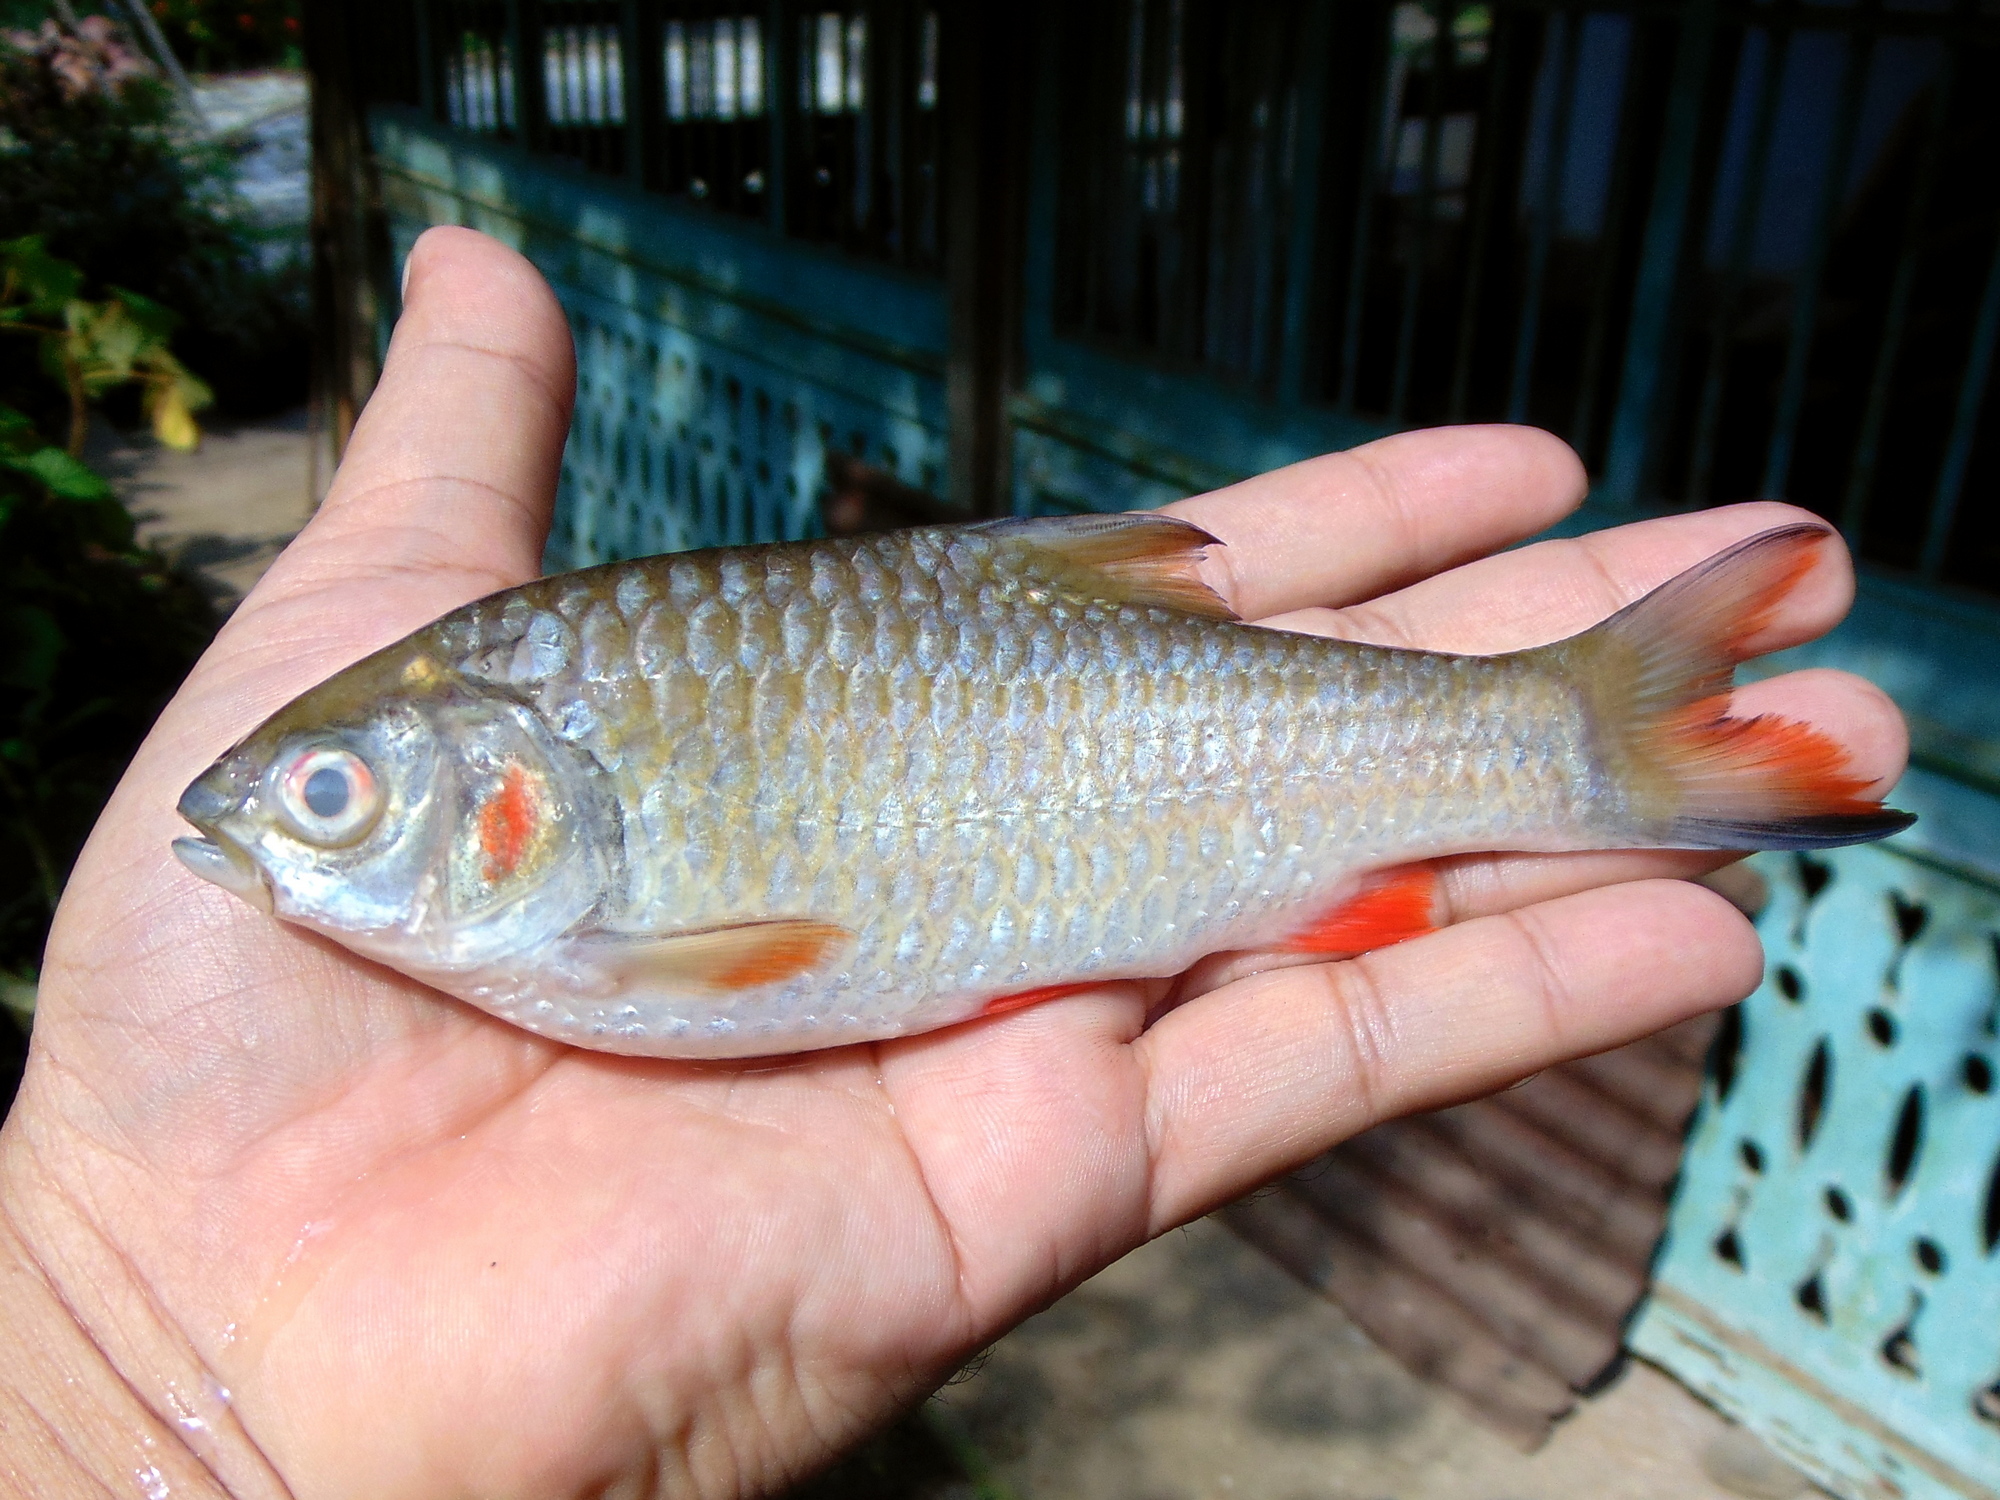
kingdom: Animalia
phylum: Chordata
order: Cypriniformes
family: Cyprinidae
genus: Systomus
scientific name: Systomus orphoides
